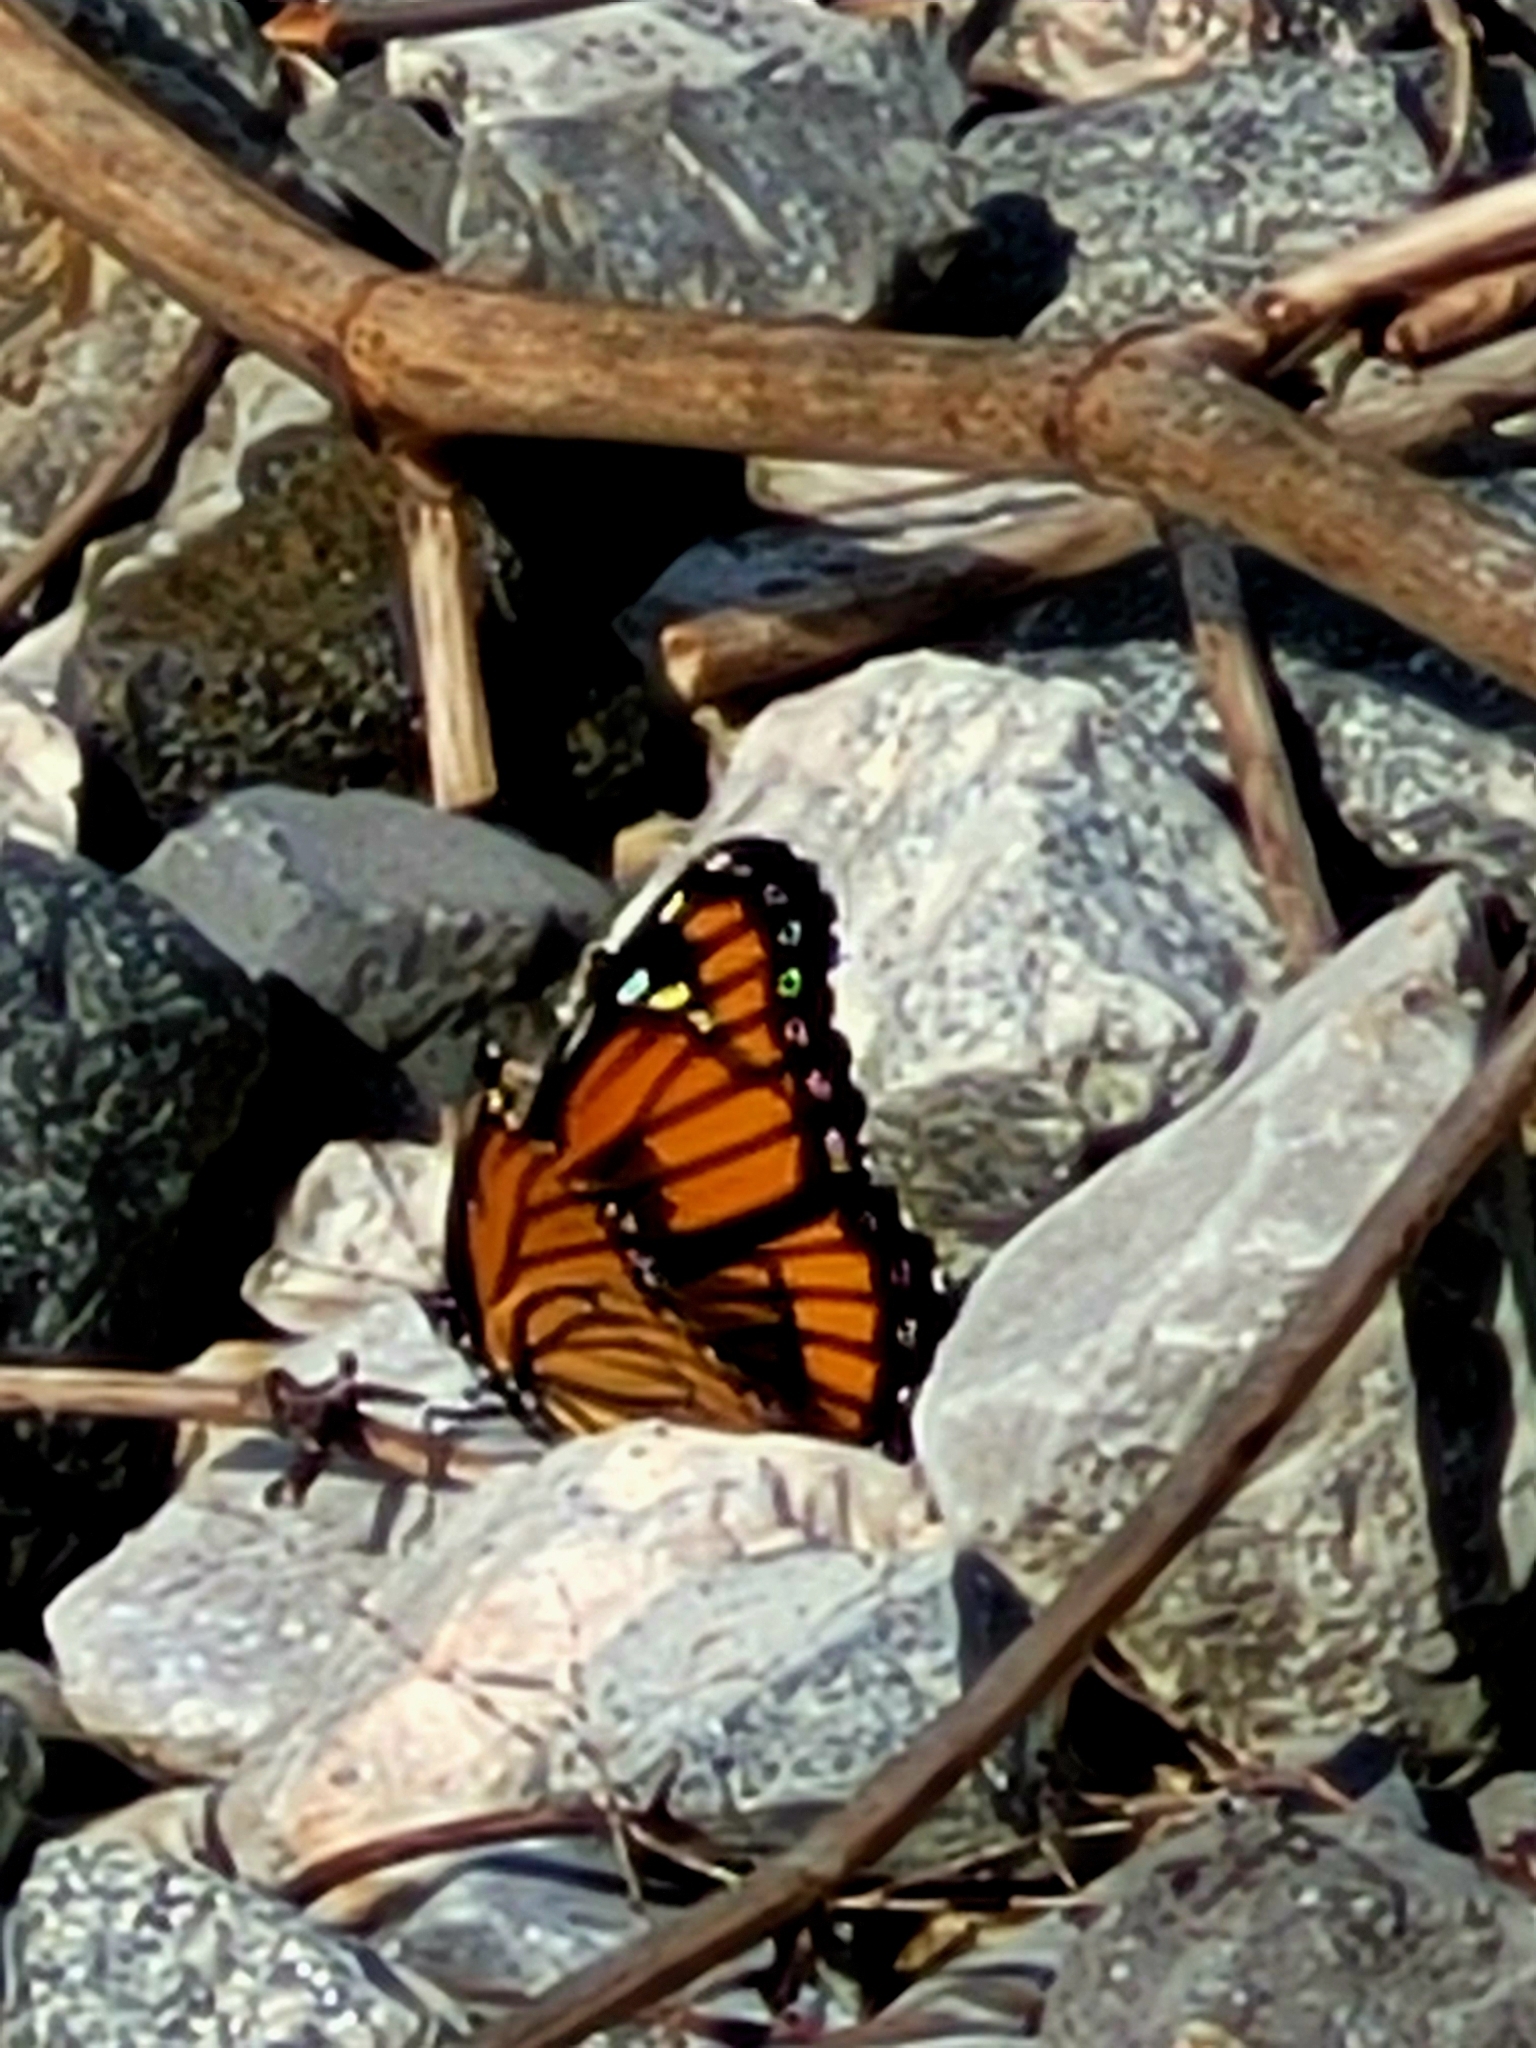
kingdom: Animalia
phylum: Arthropoda
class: Insecta
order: Lepidoptera
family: Nymphalidae
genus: Limenitis
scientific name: Limenitis archippus
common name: Viceroy
